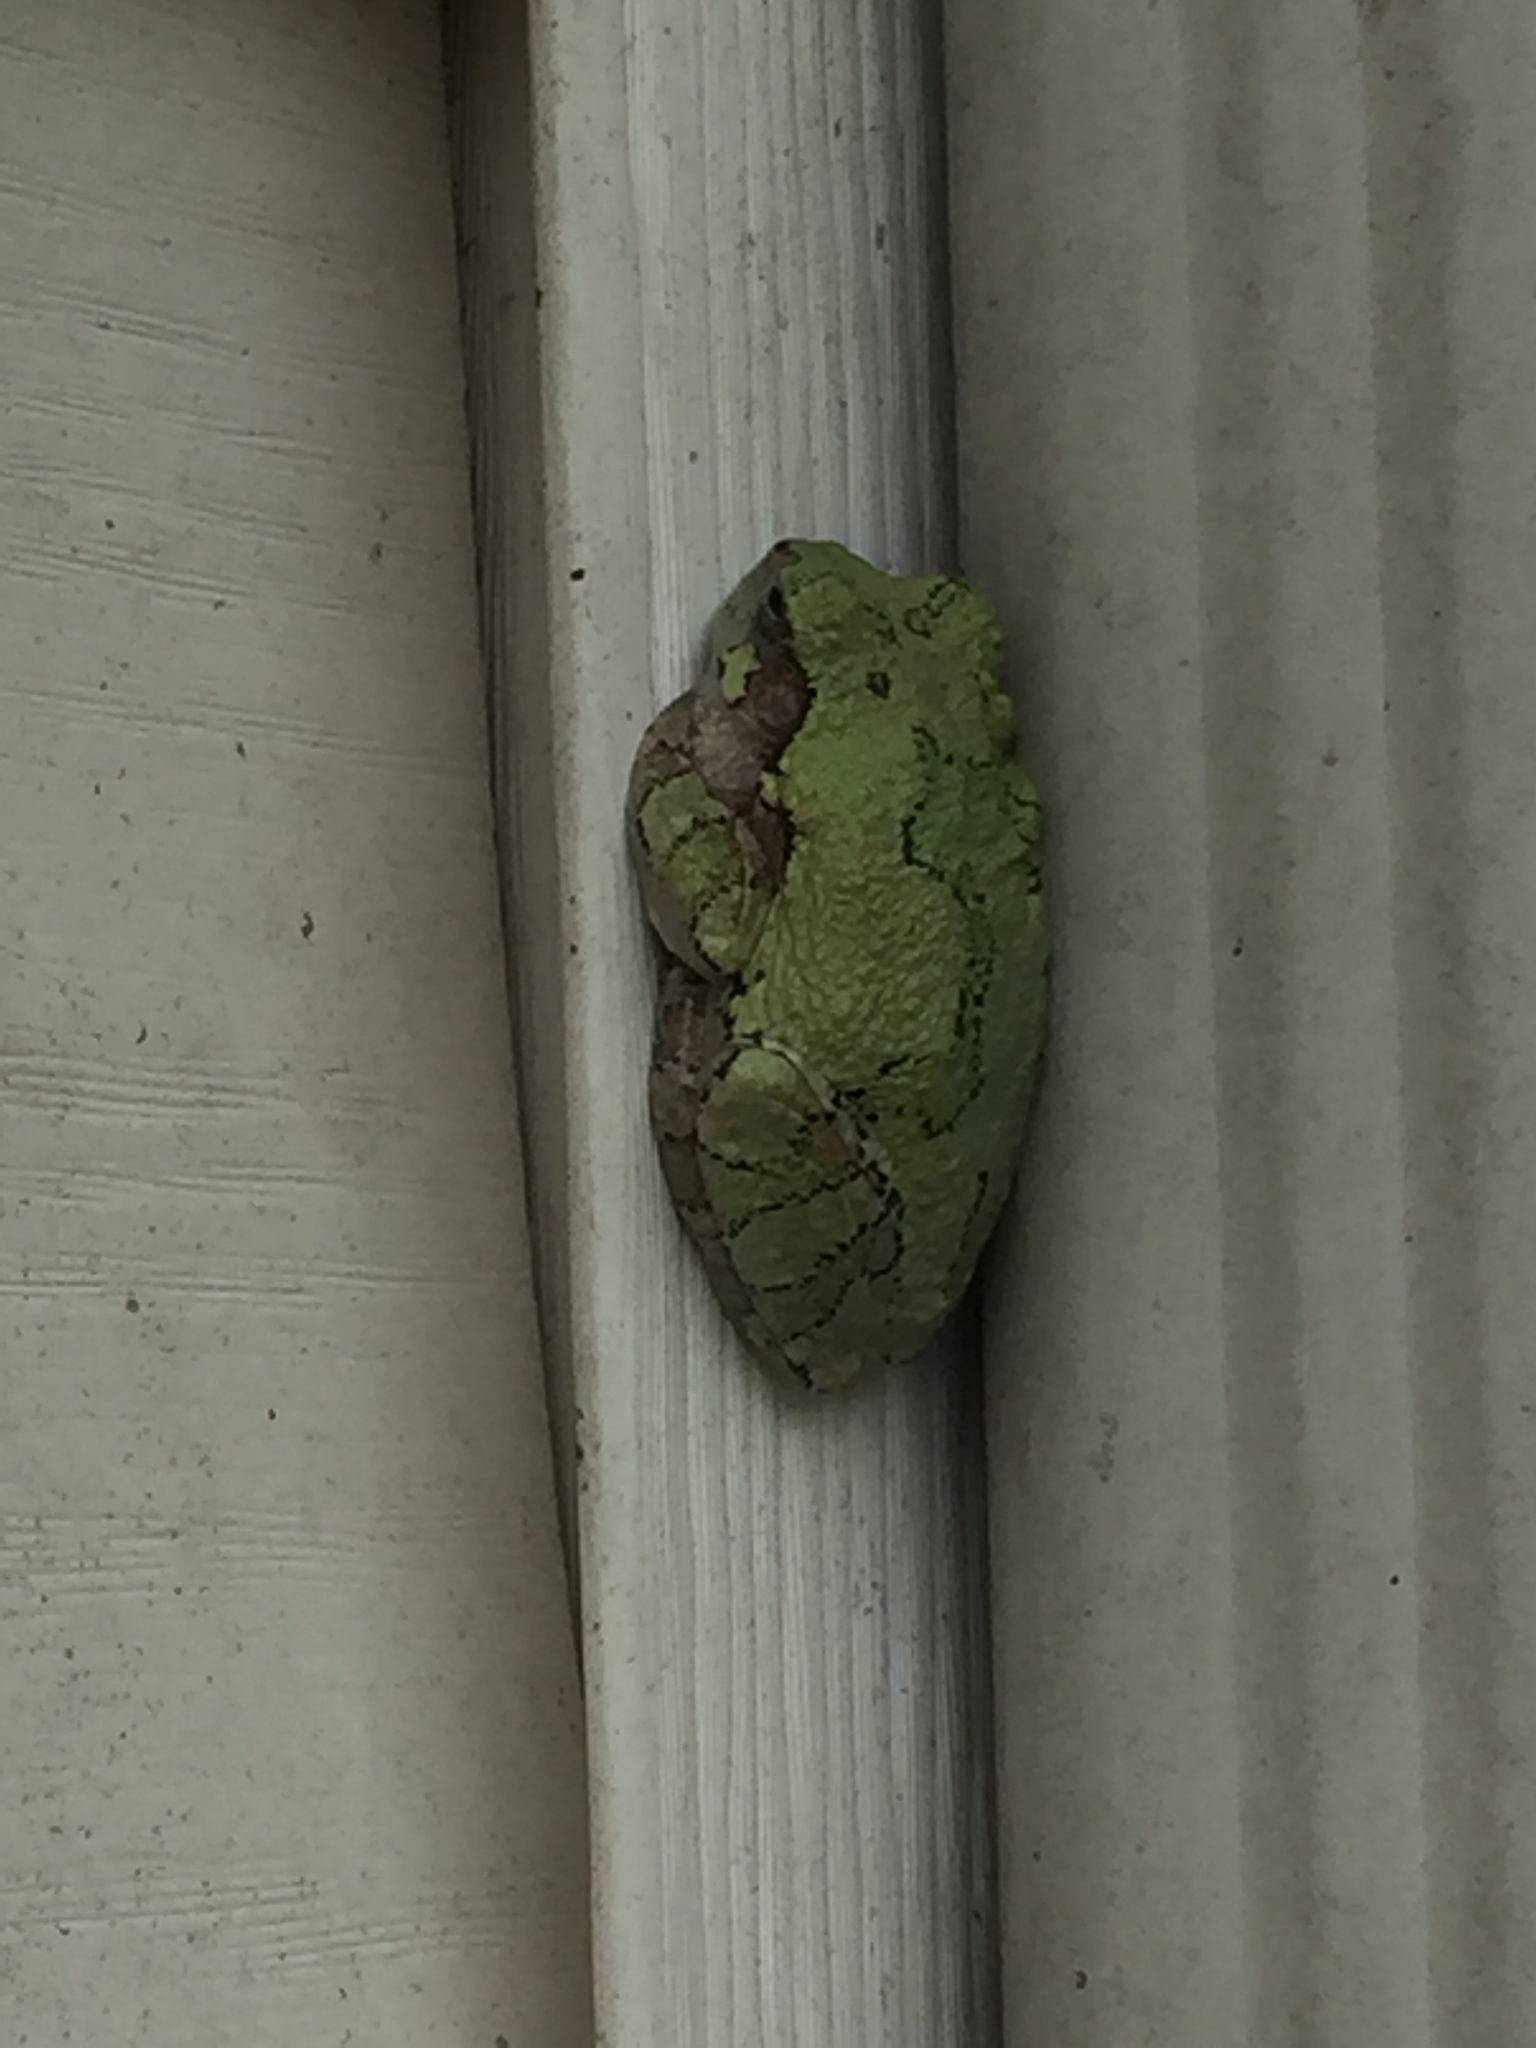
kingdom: Animalia
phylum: Chordata
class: Amphibia
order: Anura
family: Hylidae
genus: Dryophytes
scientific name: Dryophytes versicolor
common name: Gray treefrog
